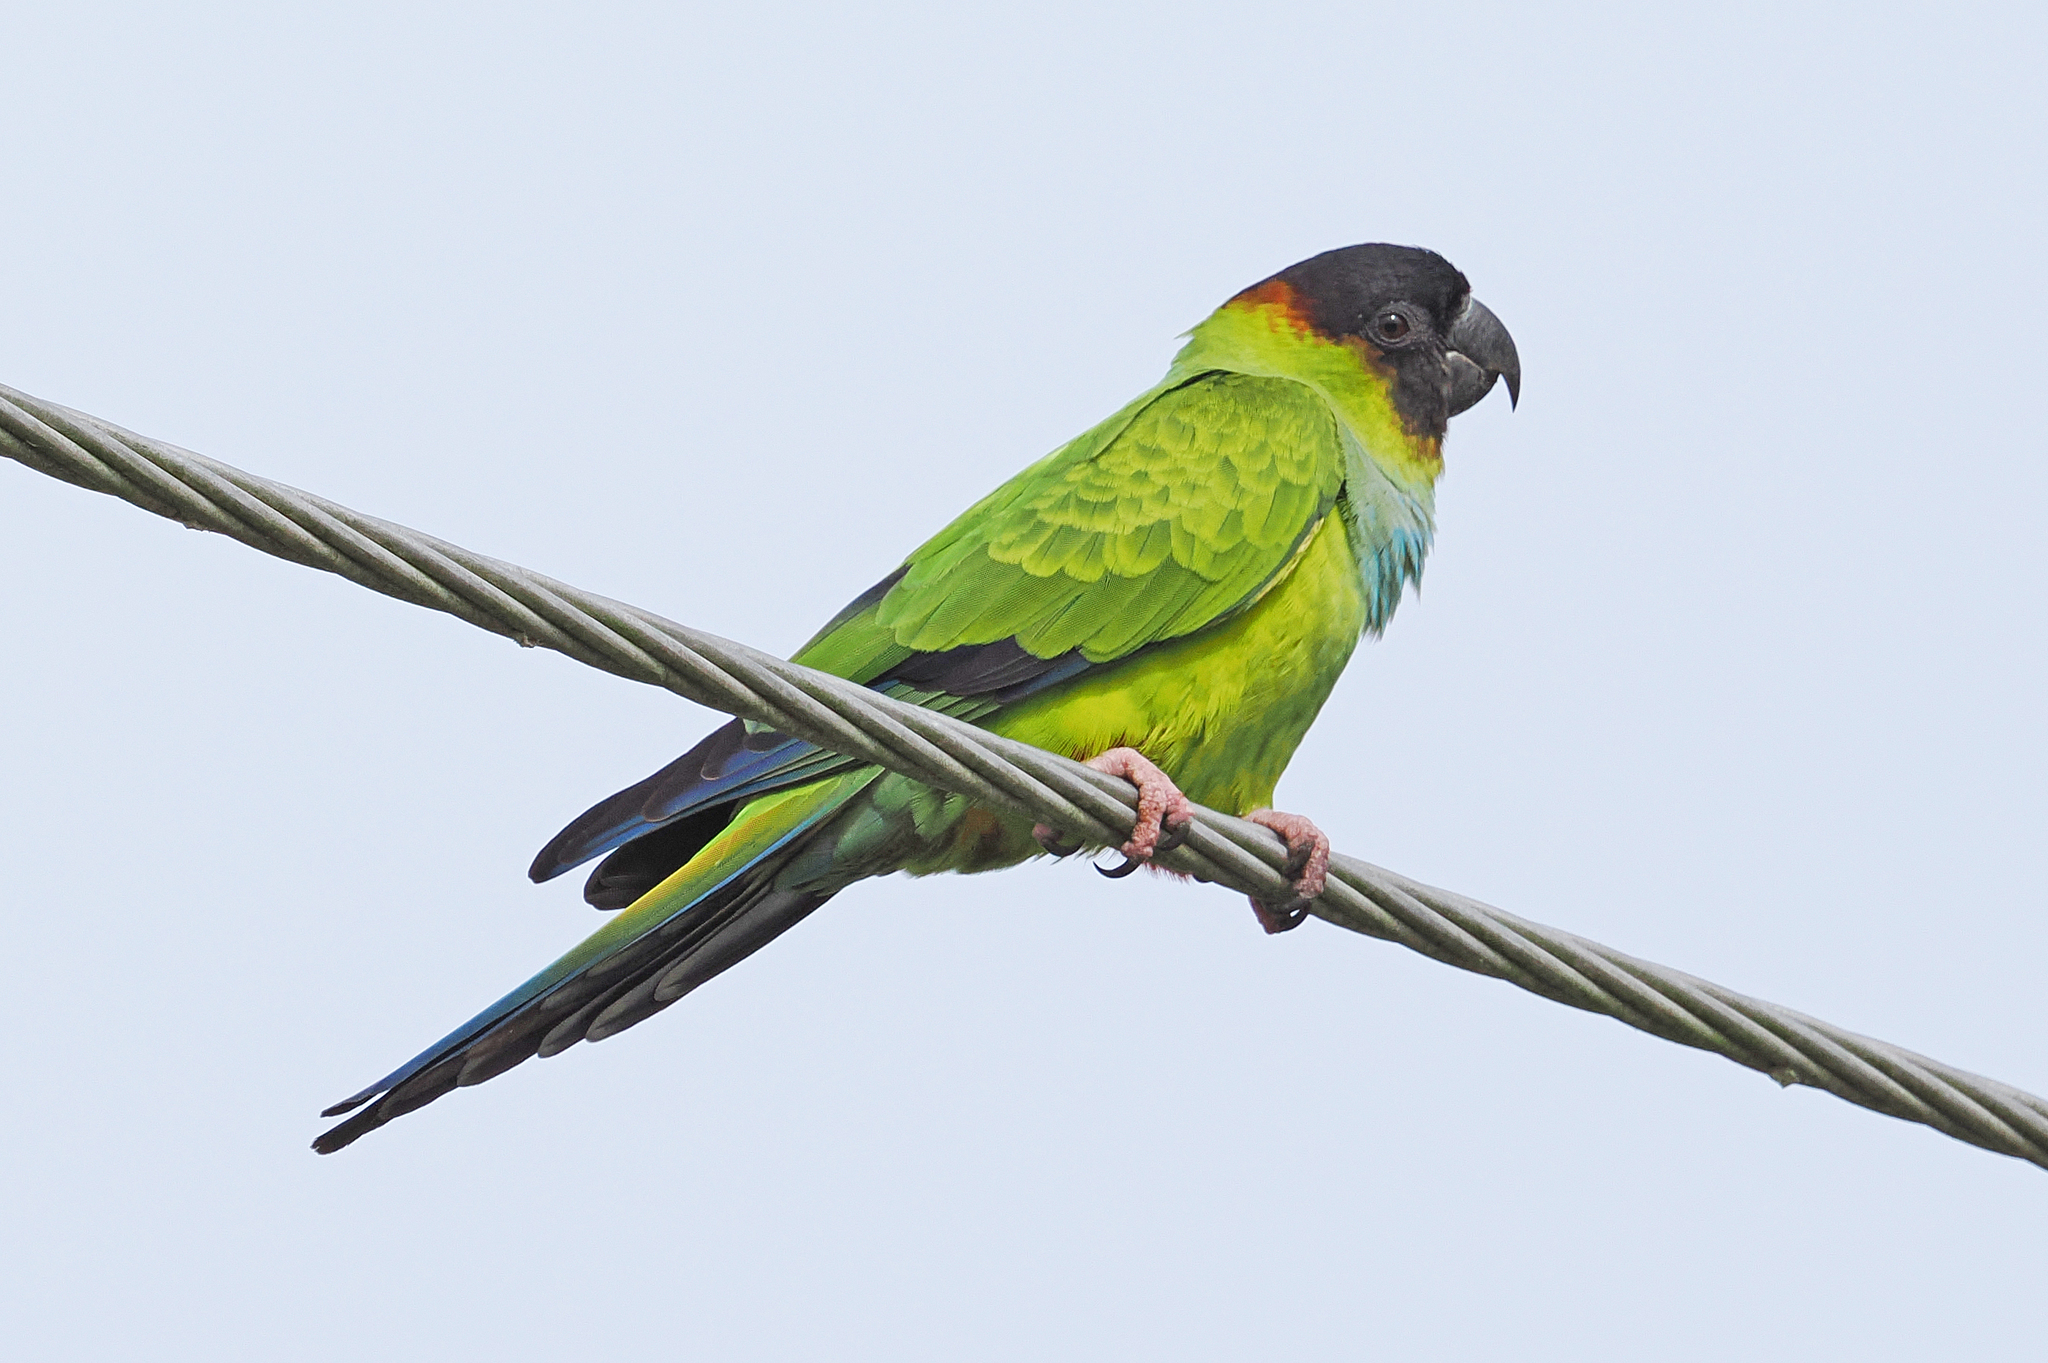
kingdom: Animalia
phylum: Chordata
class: Aves
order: Psittaciformes
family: Psittacidae
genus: Nandayus
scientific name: Nandayus nenday
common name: Nanday parakeet
